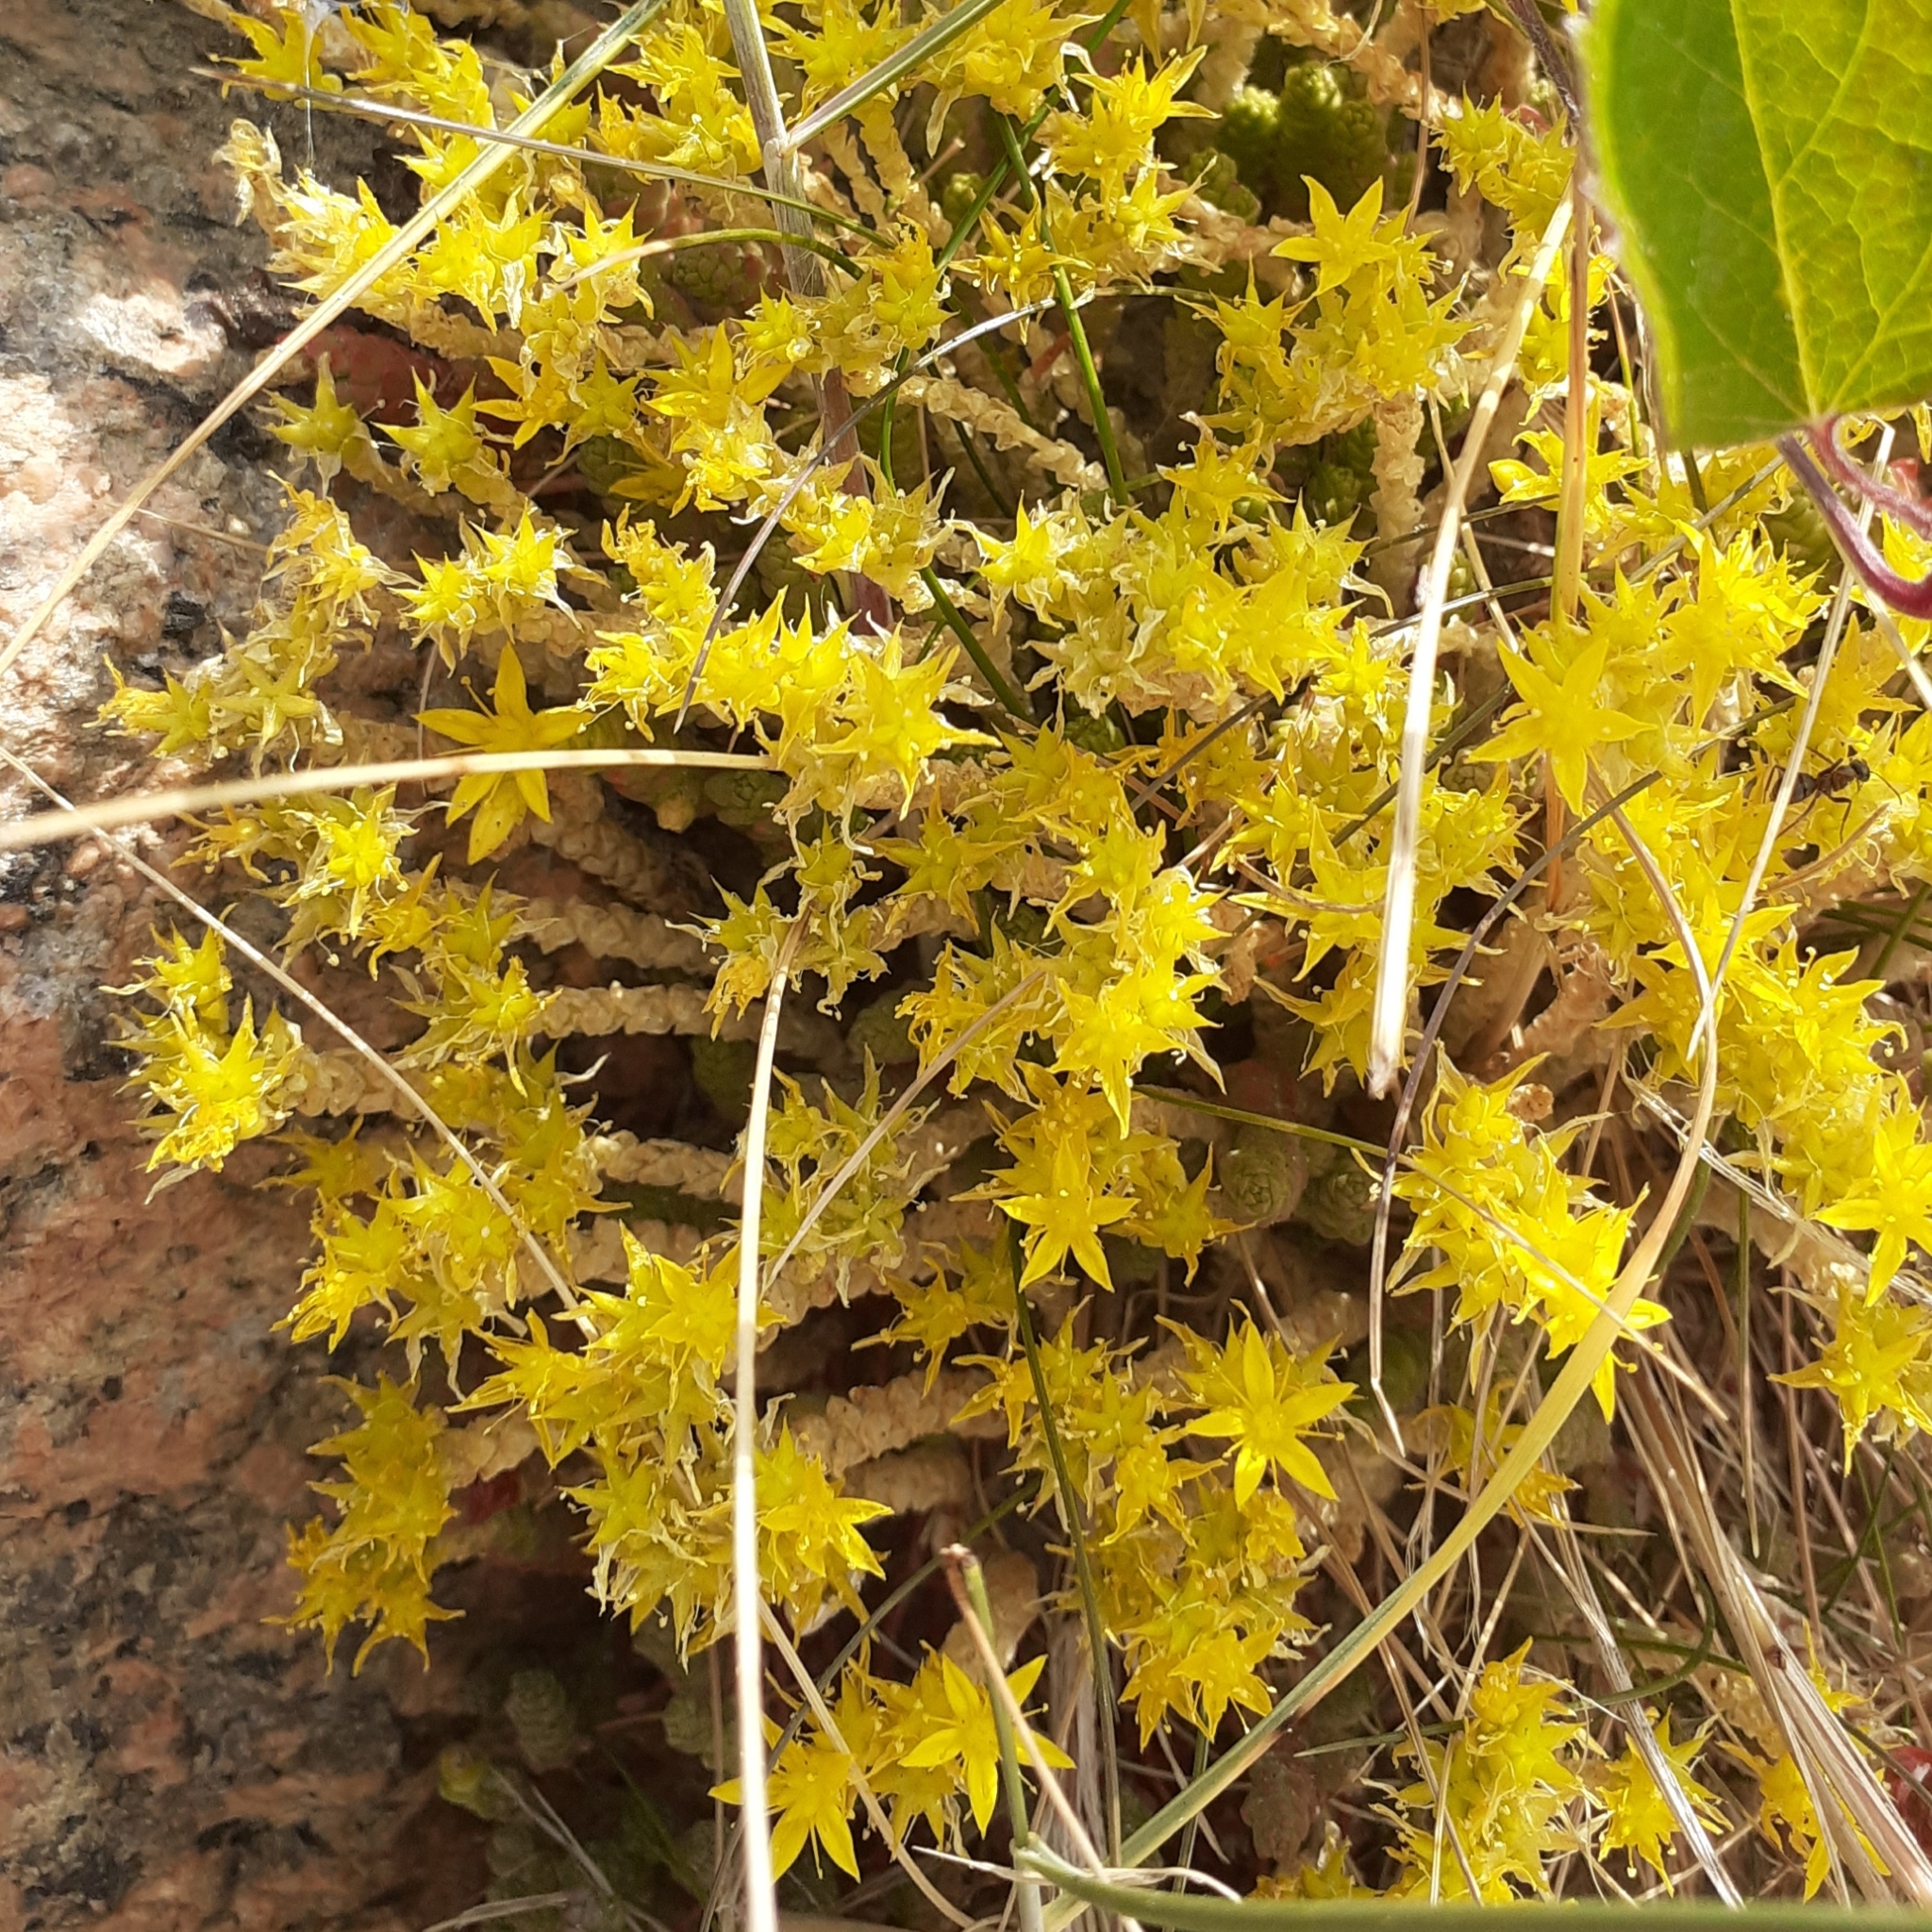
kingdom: Plantae
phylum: Tracheophyta
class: Magnoliopsida
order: Saxifragales
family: Crassulaceae
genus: Sedum
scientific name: Sedum acre
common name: Biting stonecrop
